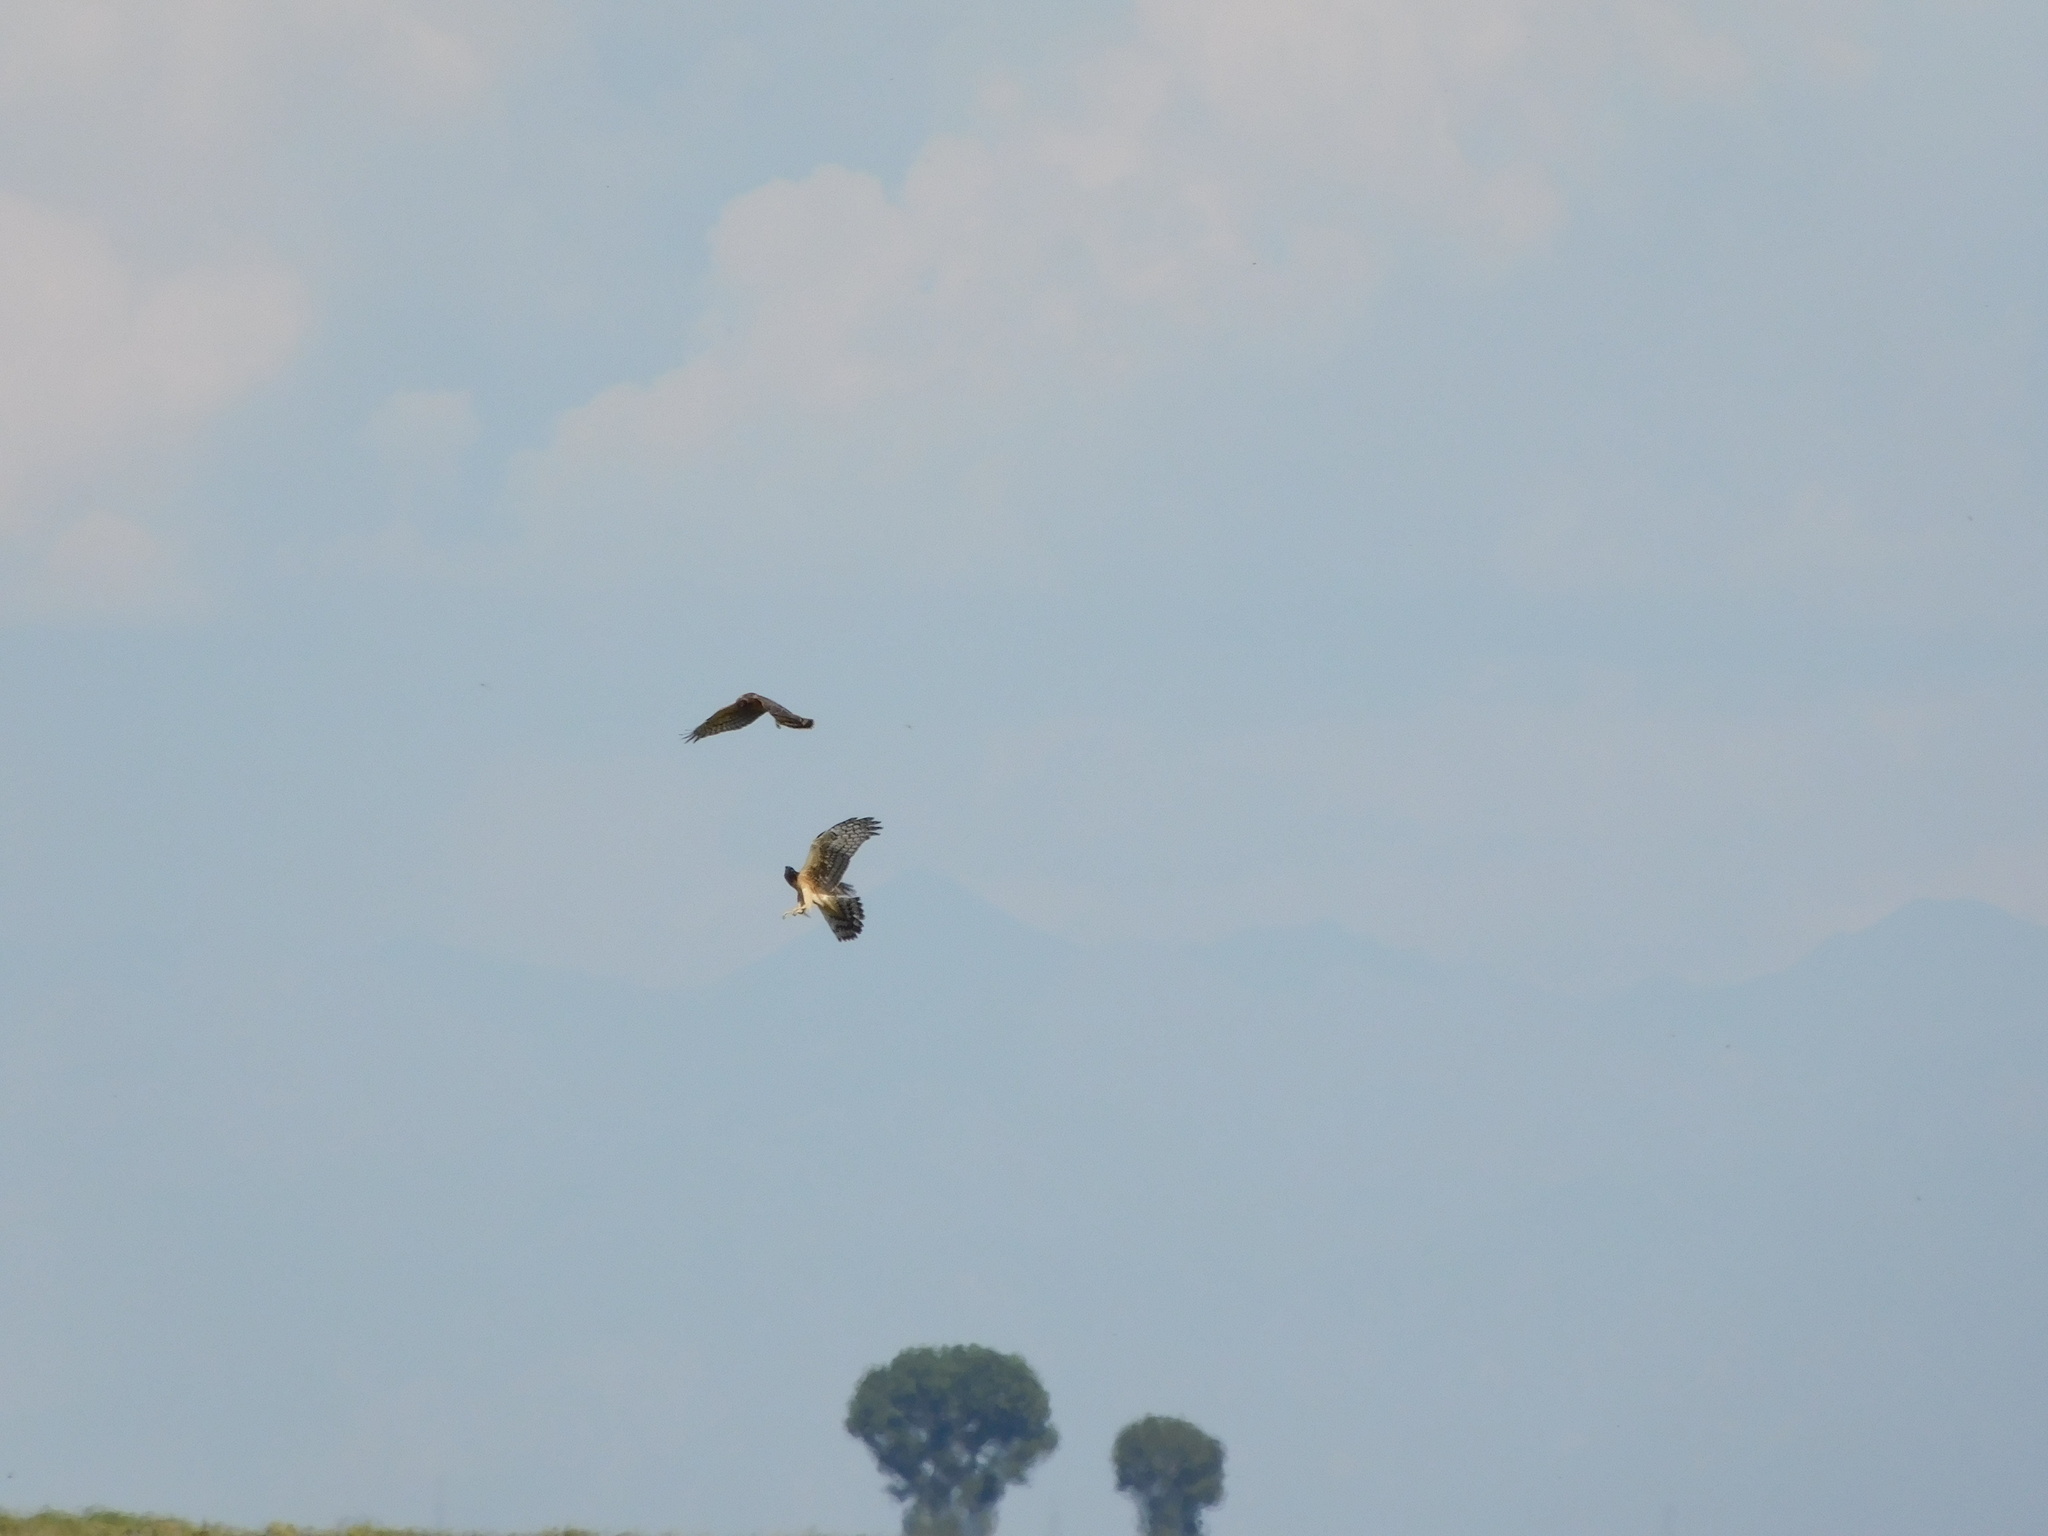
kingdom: Animalia
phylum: Chordata
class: Aves
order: Accipitriformes
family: Accipitridae
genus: Circus
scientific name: Circus cyaneus
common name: Hen harrier
